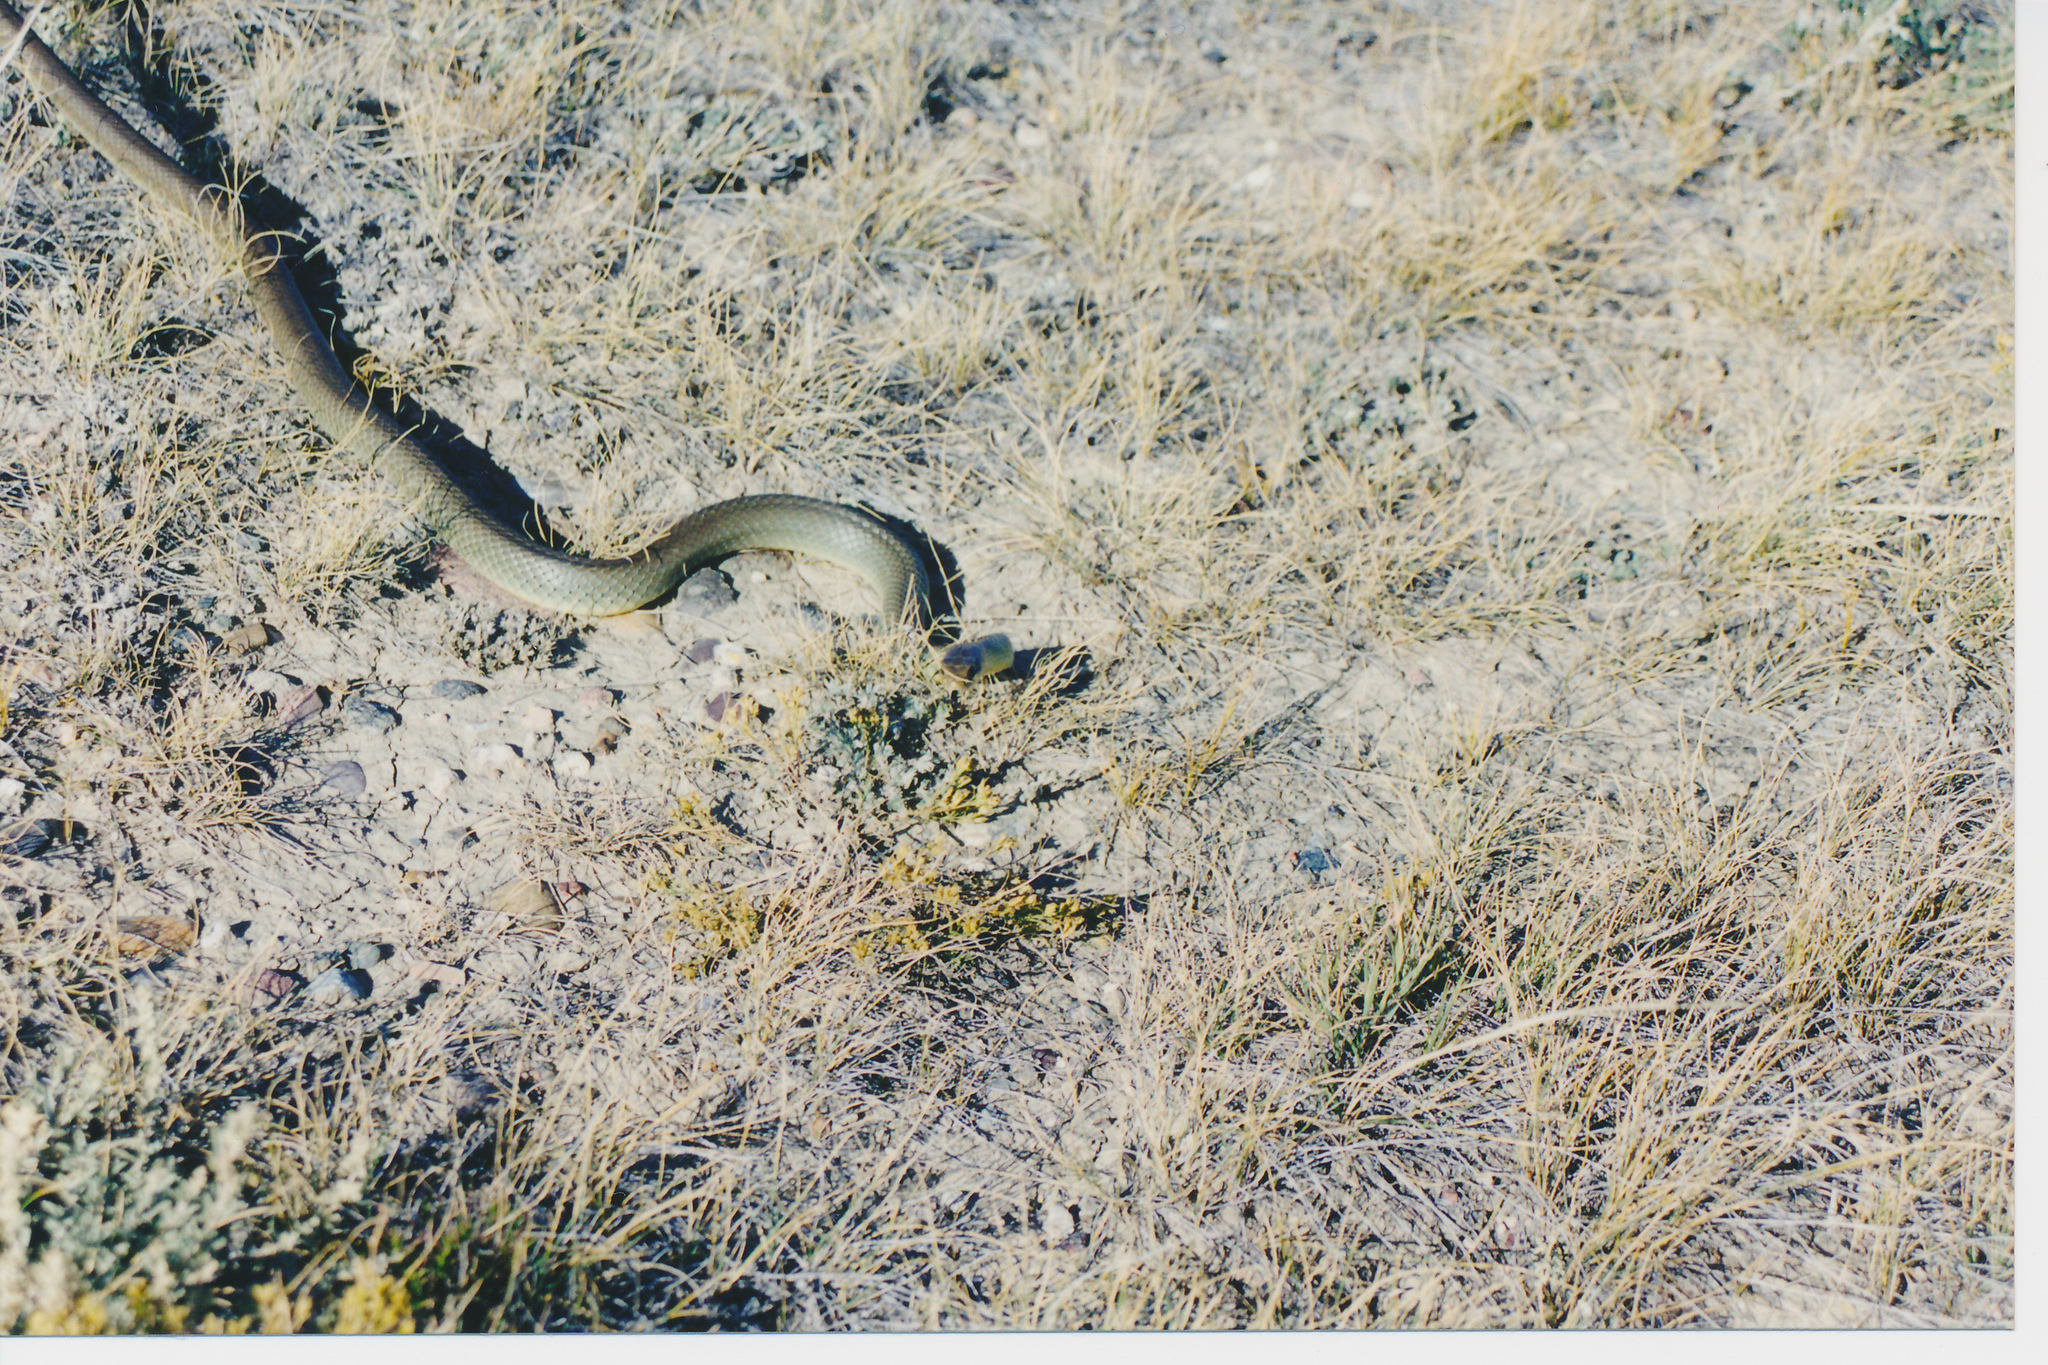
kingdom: Animalia
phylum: Chordata
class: Squamata
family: Colubridae
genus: Coluber
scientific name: Coluber constrictor
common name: Eastern racer
